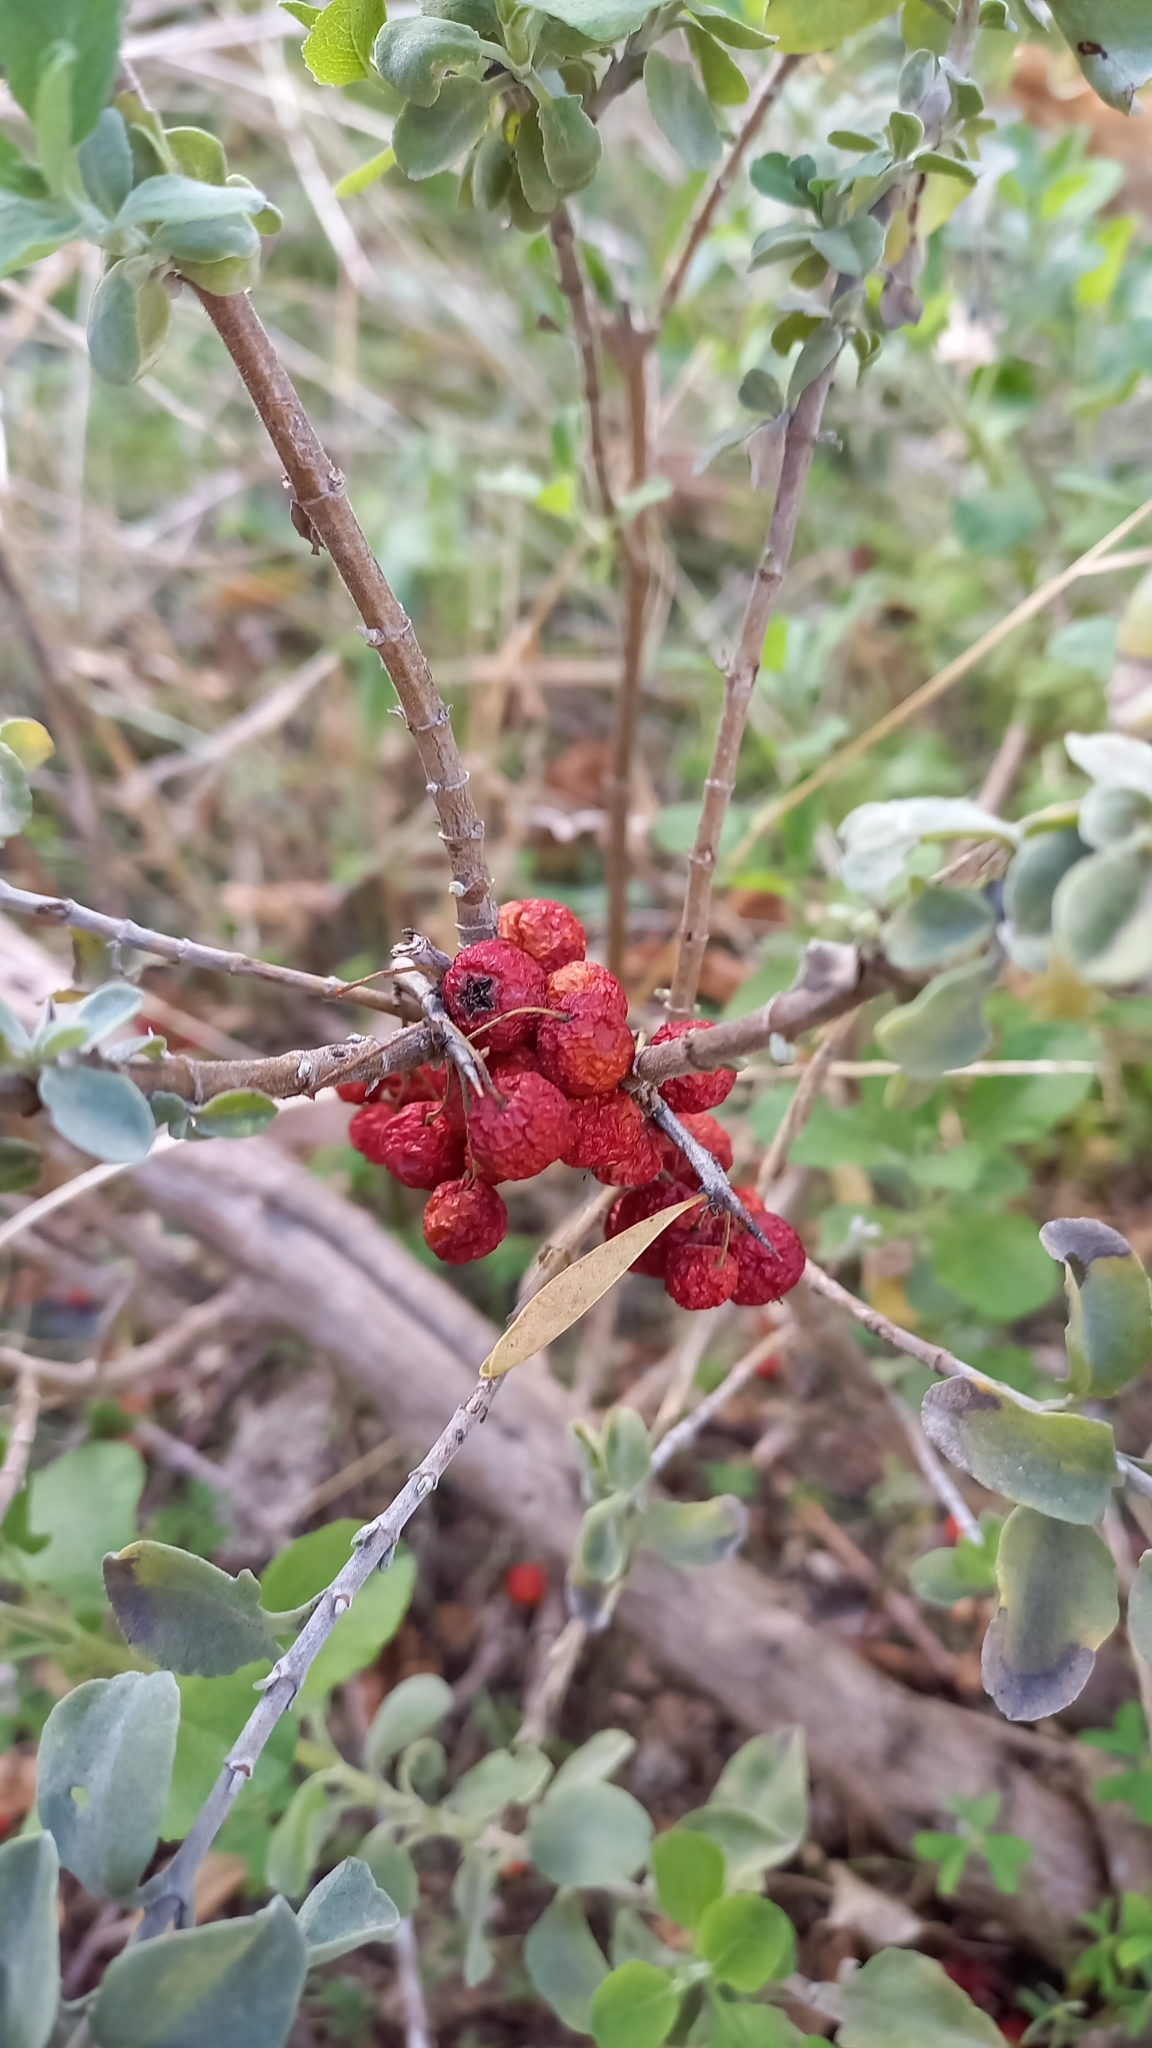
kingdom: Plantae
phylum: Tracheophyta
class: Magnoliopsida
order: Lamiales
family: Lamiaceae
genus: Salvia
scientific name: Salvia aurea
